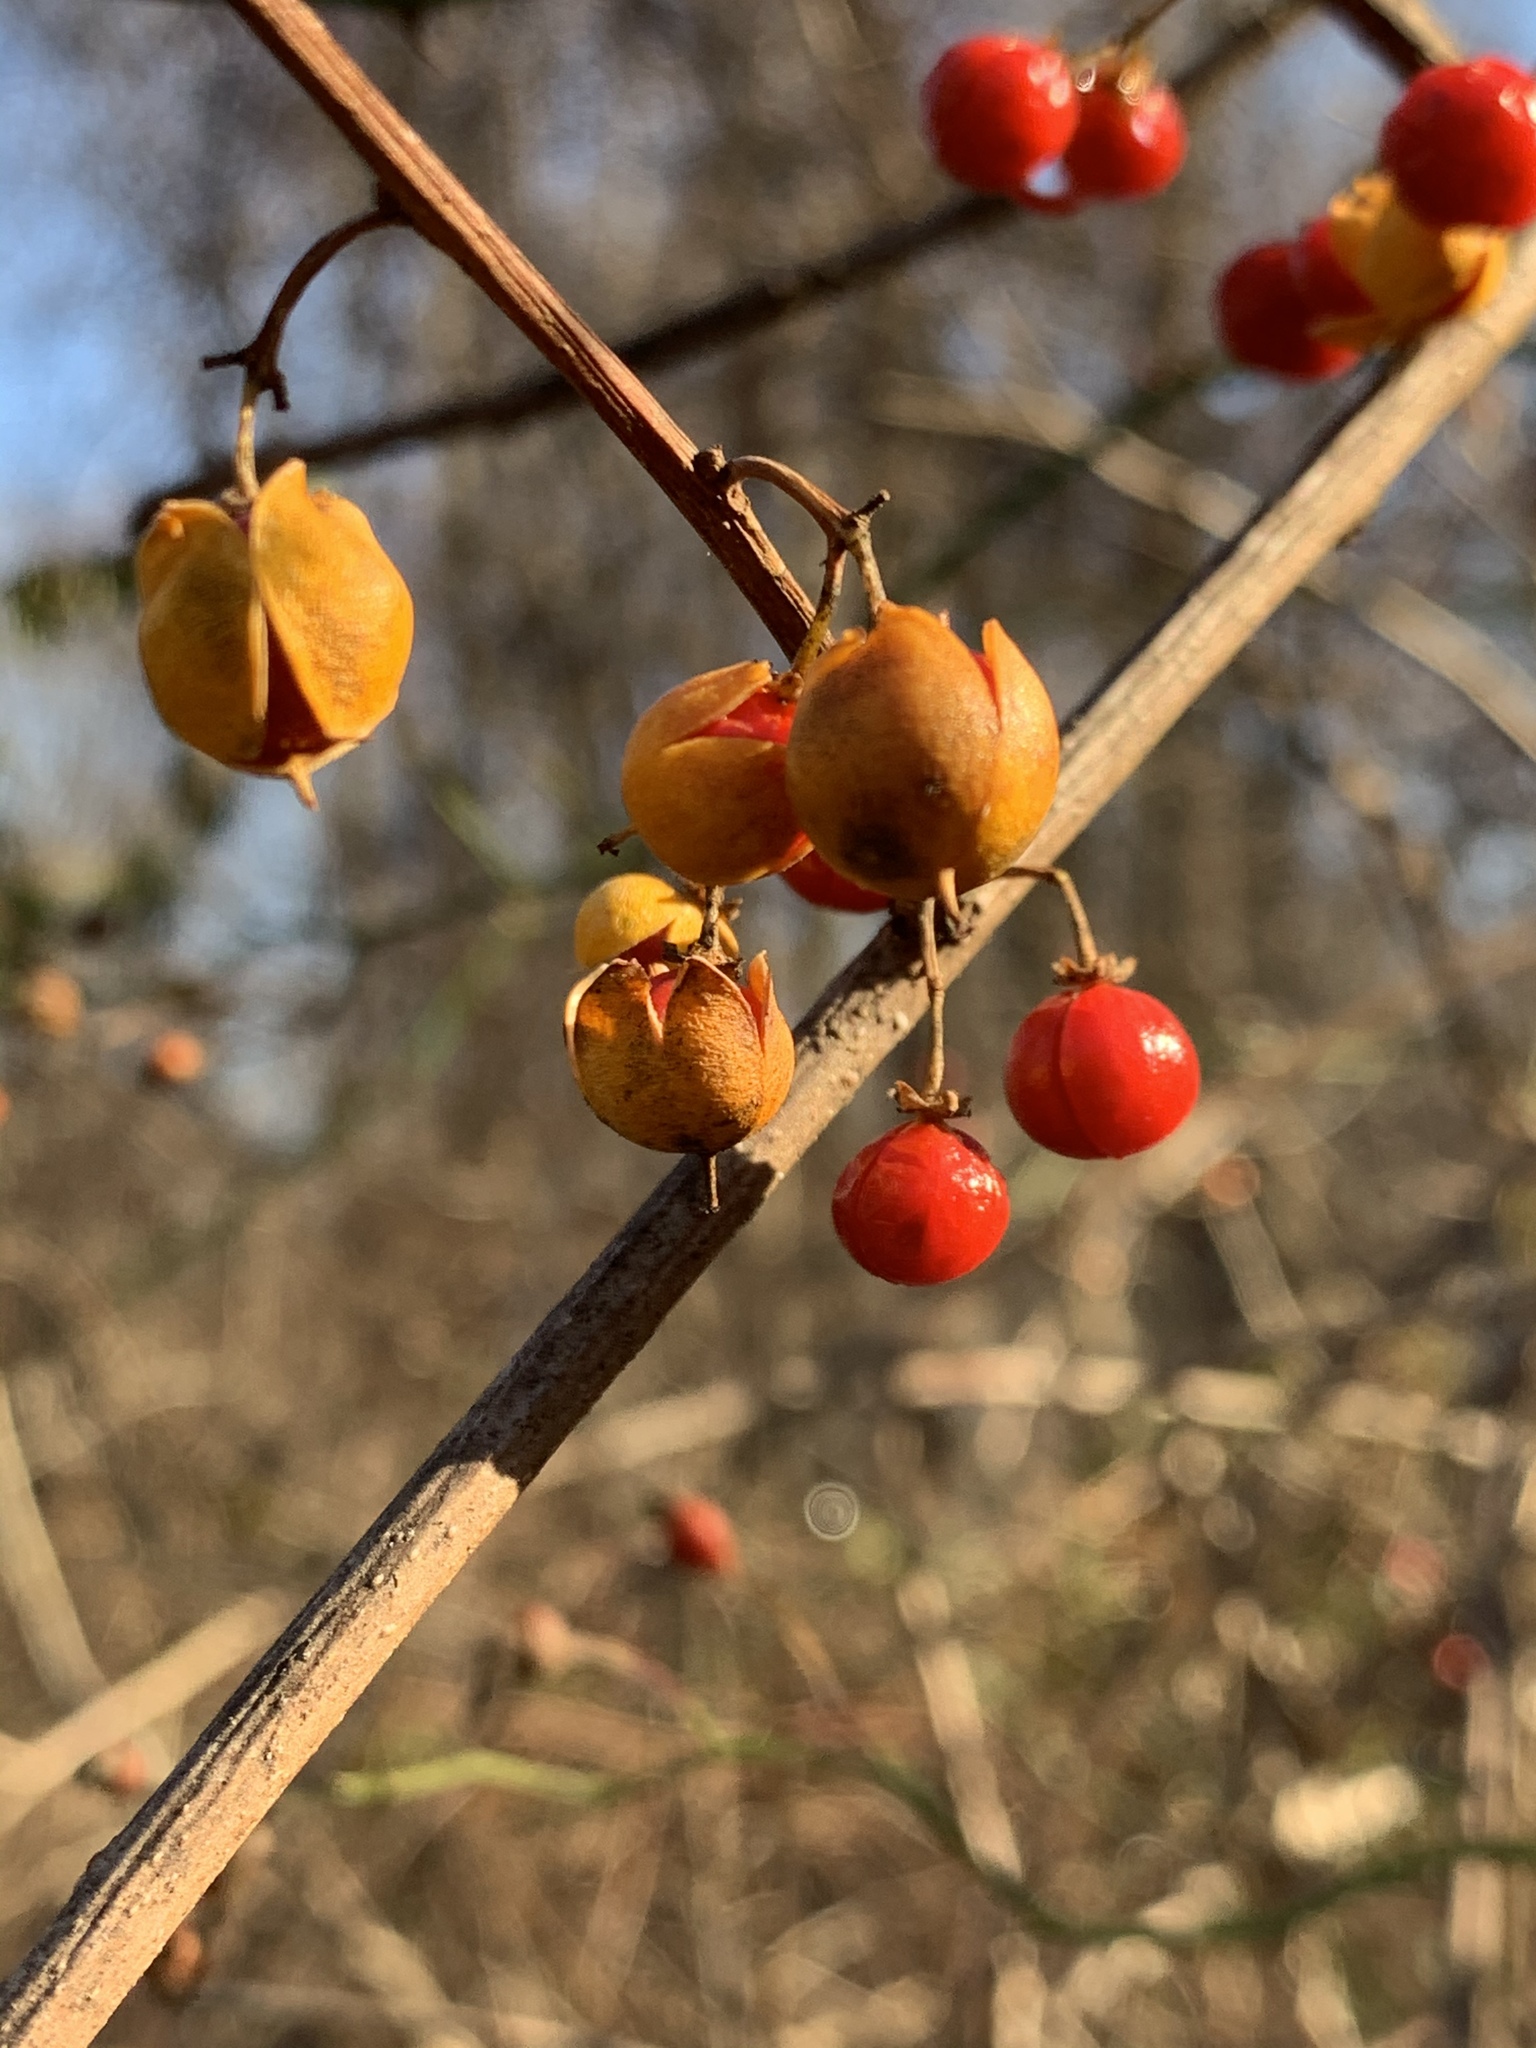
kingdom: Plantae
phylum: Tracheophyta
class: Magnoliopsida
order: Celastrales
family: Celastraceae
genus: Celastrus
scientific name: Celastrus orbiculatus
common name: Oriental bittersweet
